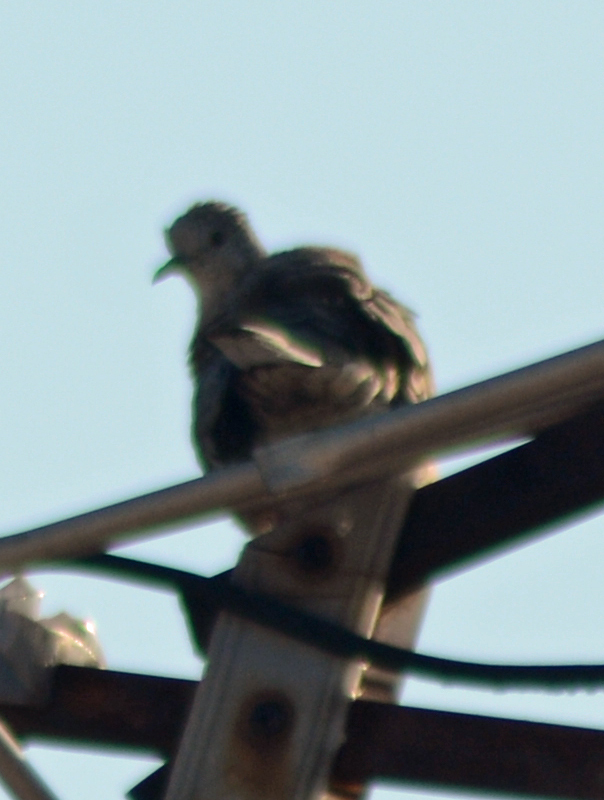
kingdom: Animalia
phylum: Chordata
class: Aves
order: Columbiformes
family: Columbidae
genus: Columbina
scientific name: Columbina inca
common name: Inca dove
